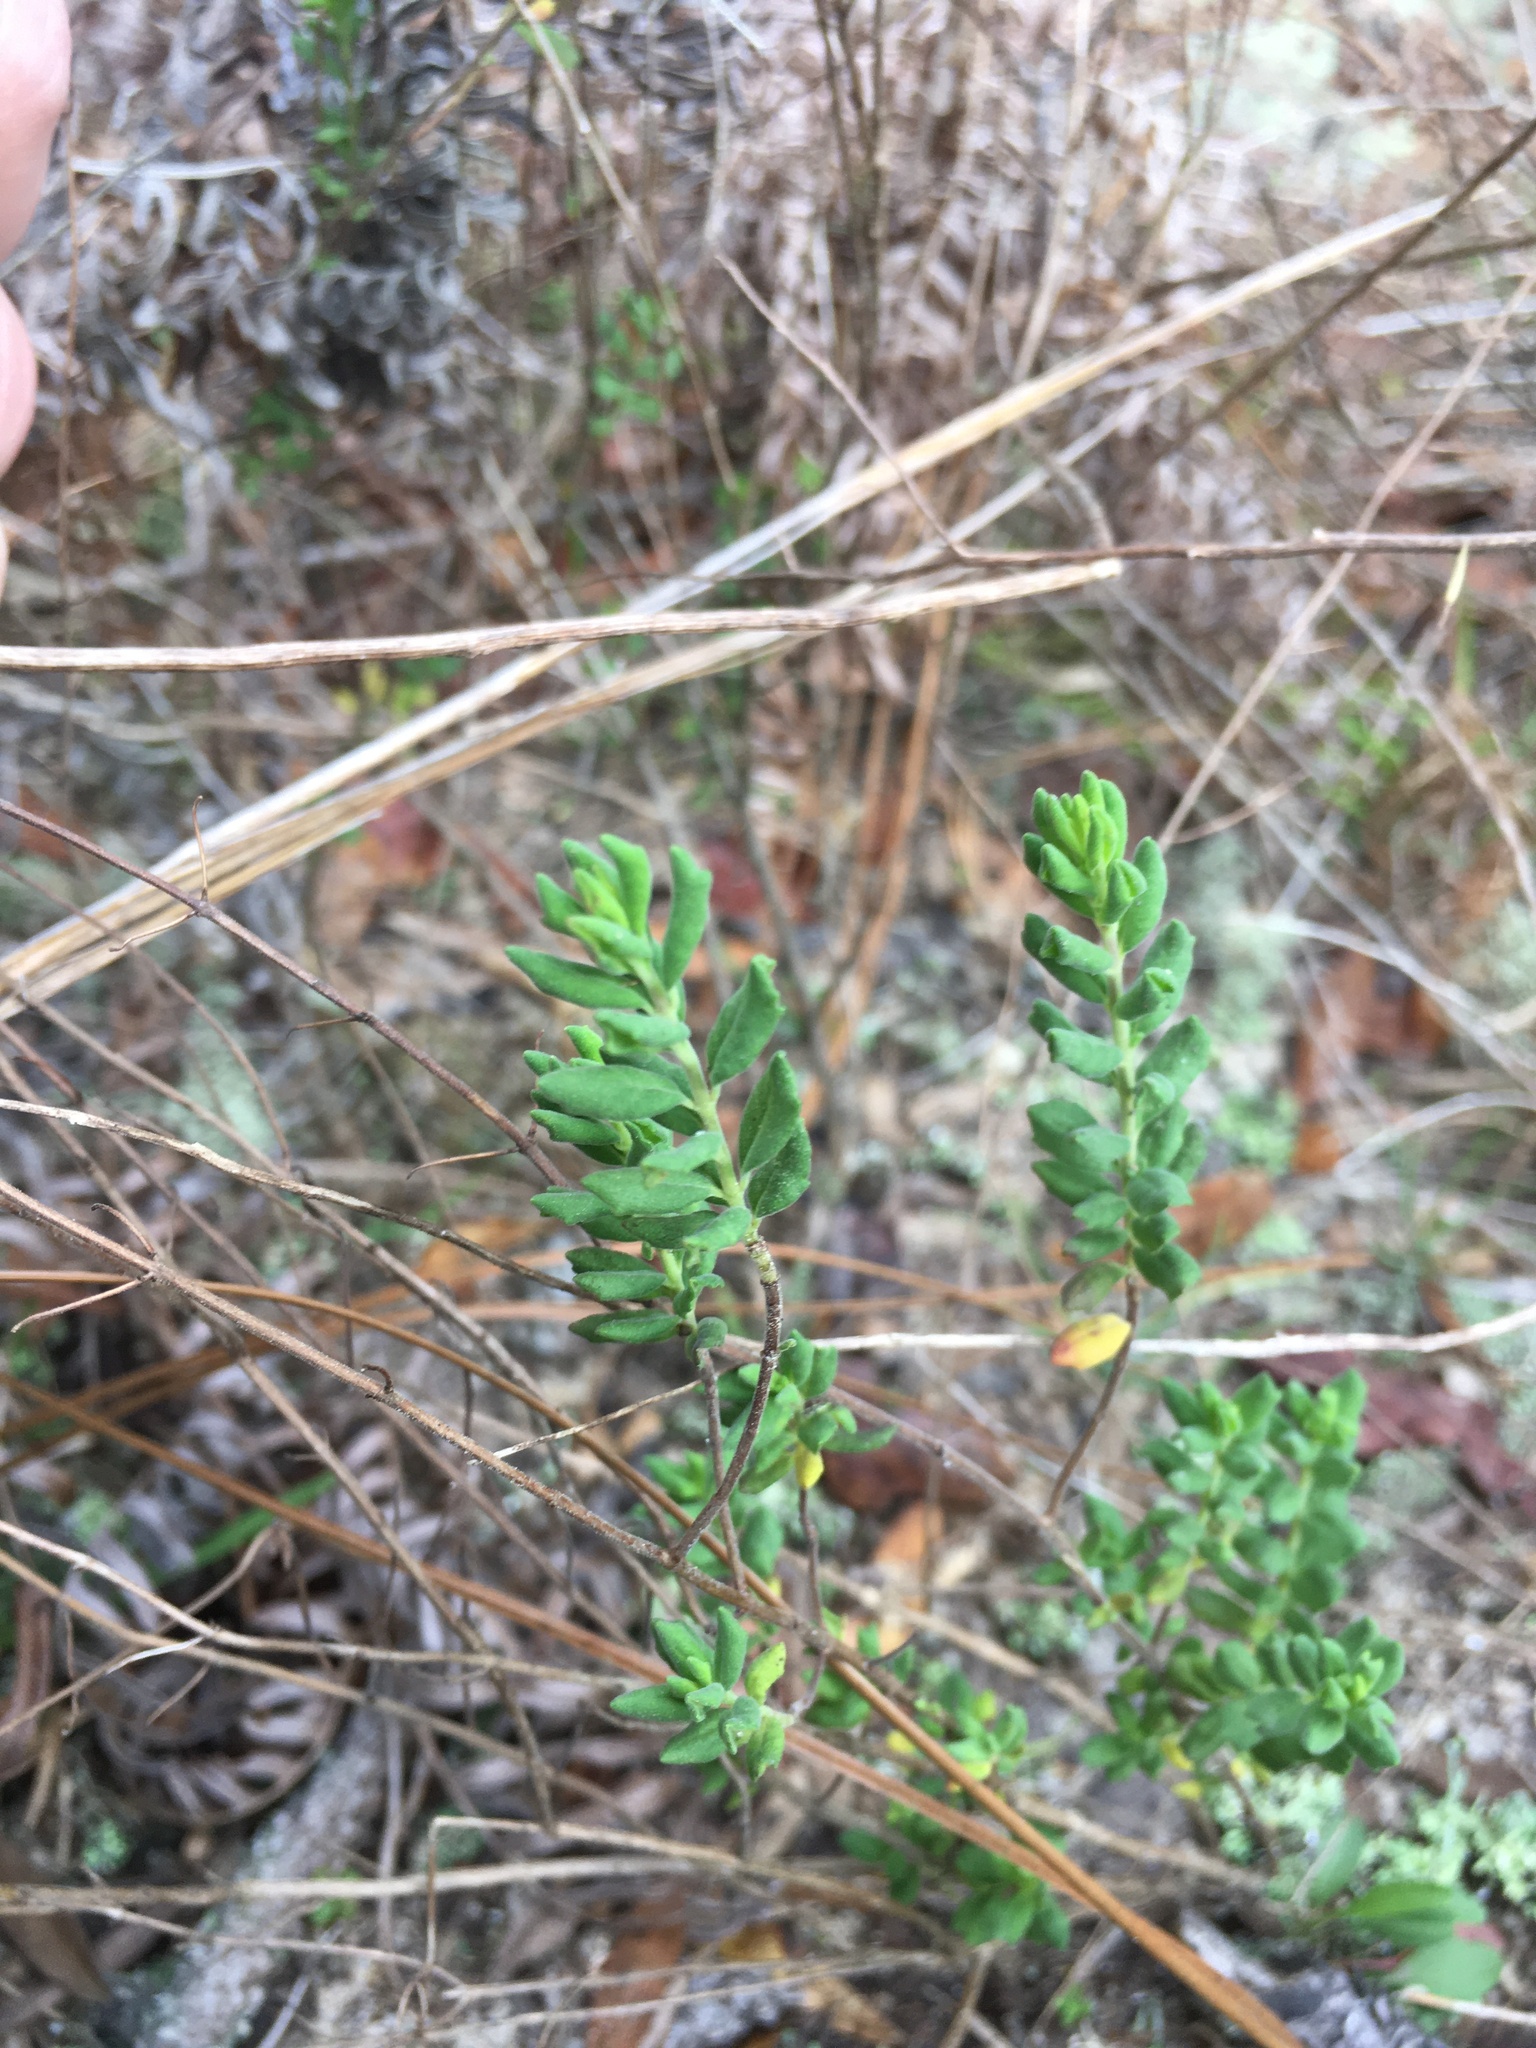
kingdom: Plantae
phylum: Tracheophyta
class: Magnoliopsida
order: Lamiales
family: Lamiaceae
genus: Clinopodium
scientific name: Clinopodium dentatum
